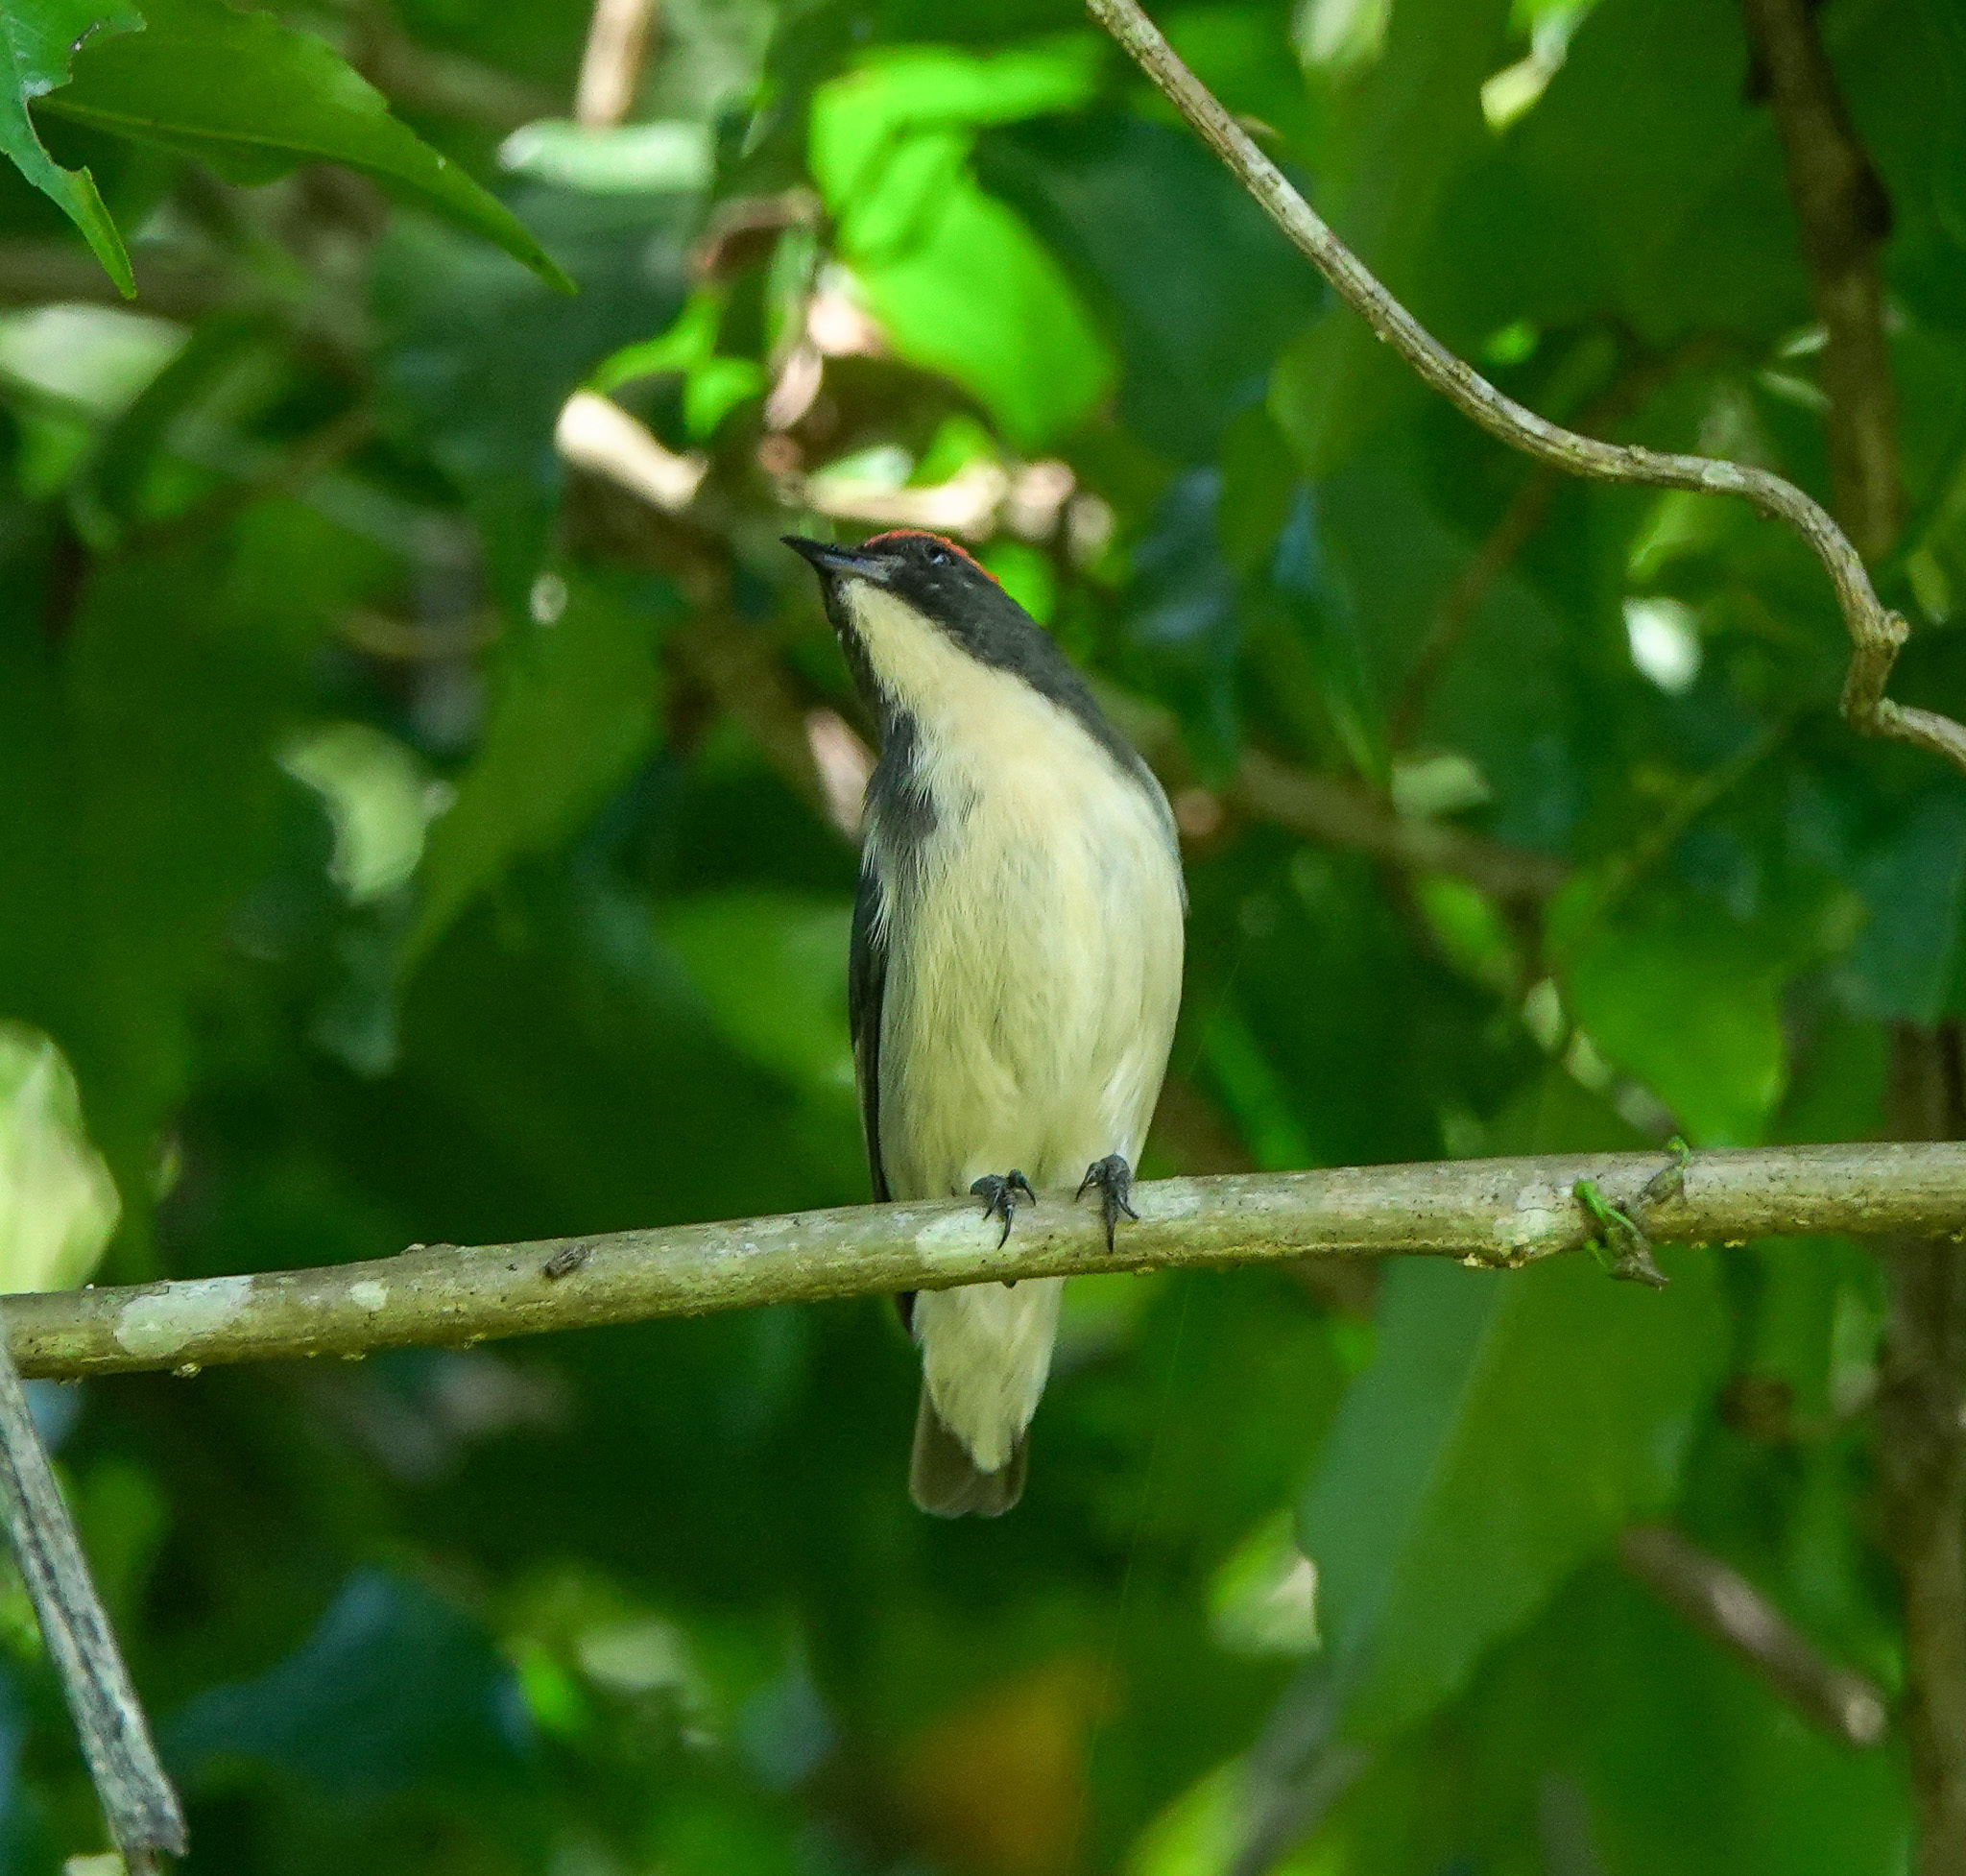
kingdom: Animalia
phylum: Chordata
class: Aves
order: Passeriformes
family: Dicaeidae
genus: Dicaeum
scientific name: Dicaeum cruentatum
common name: Scarlet-backed flowerpecker
